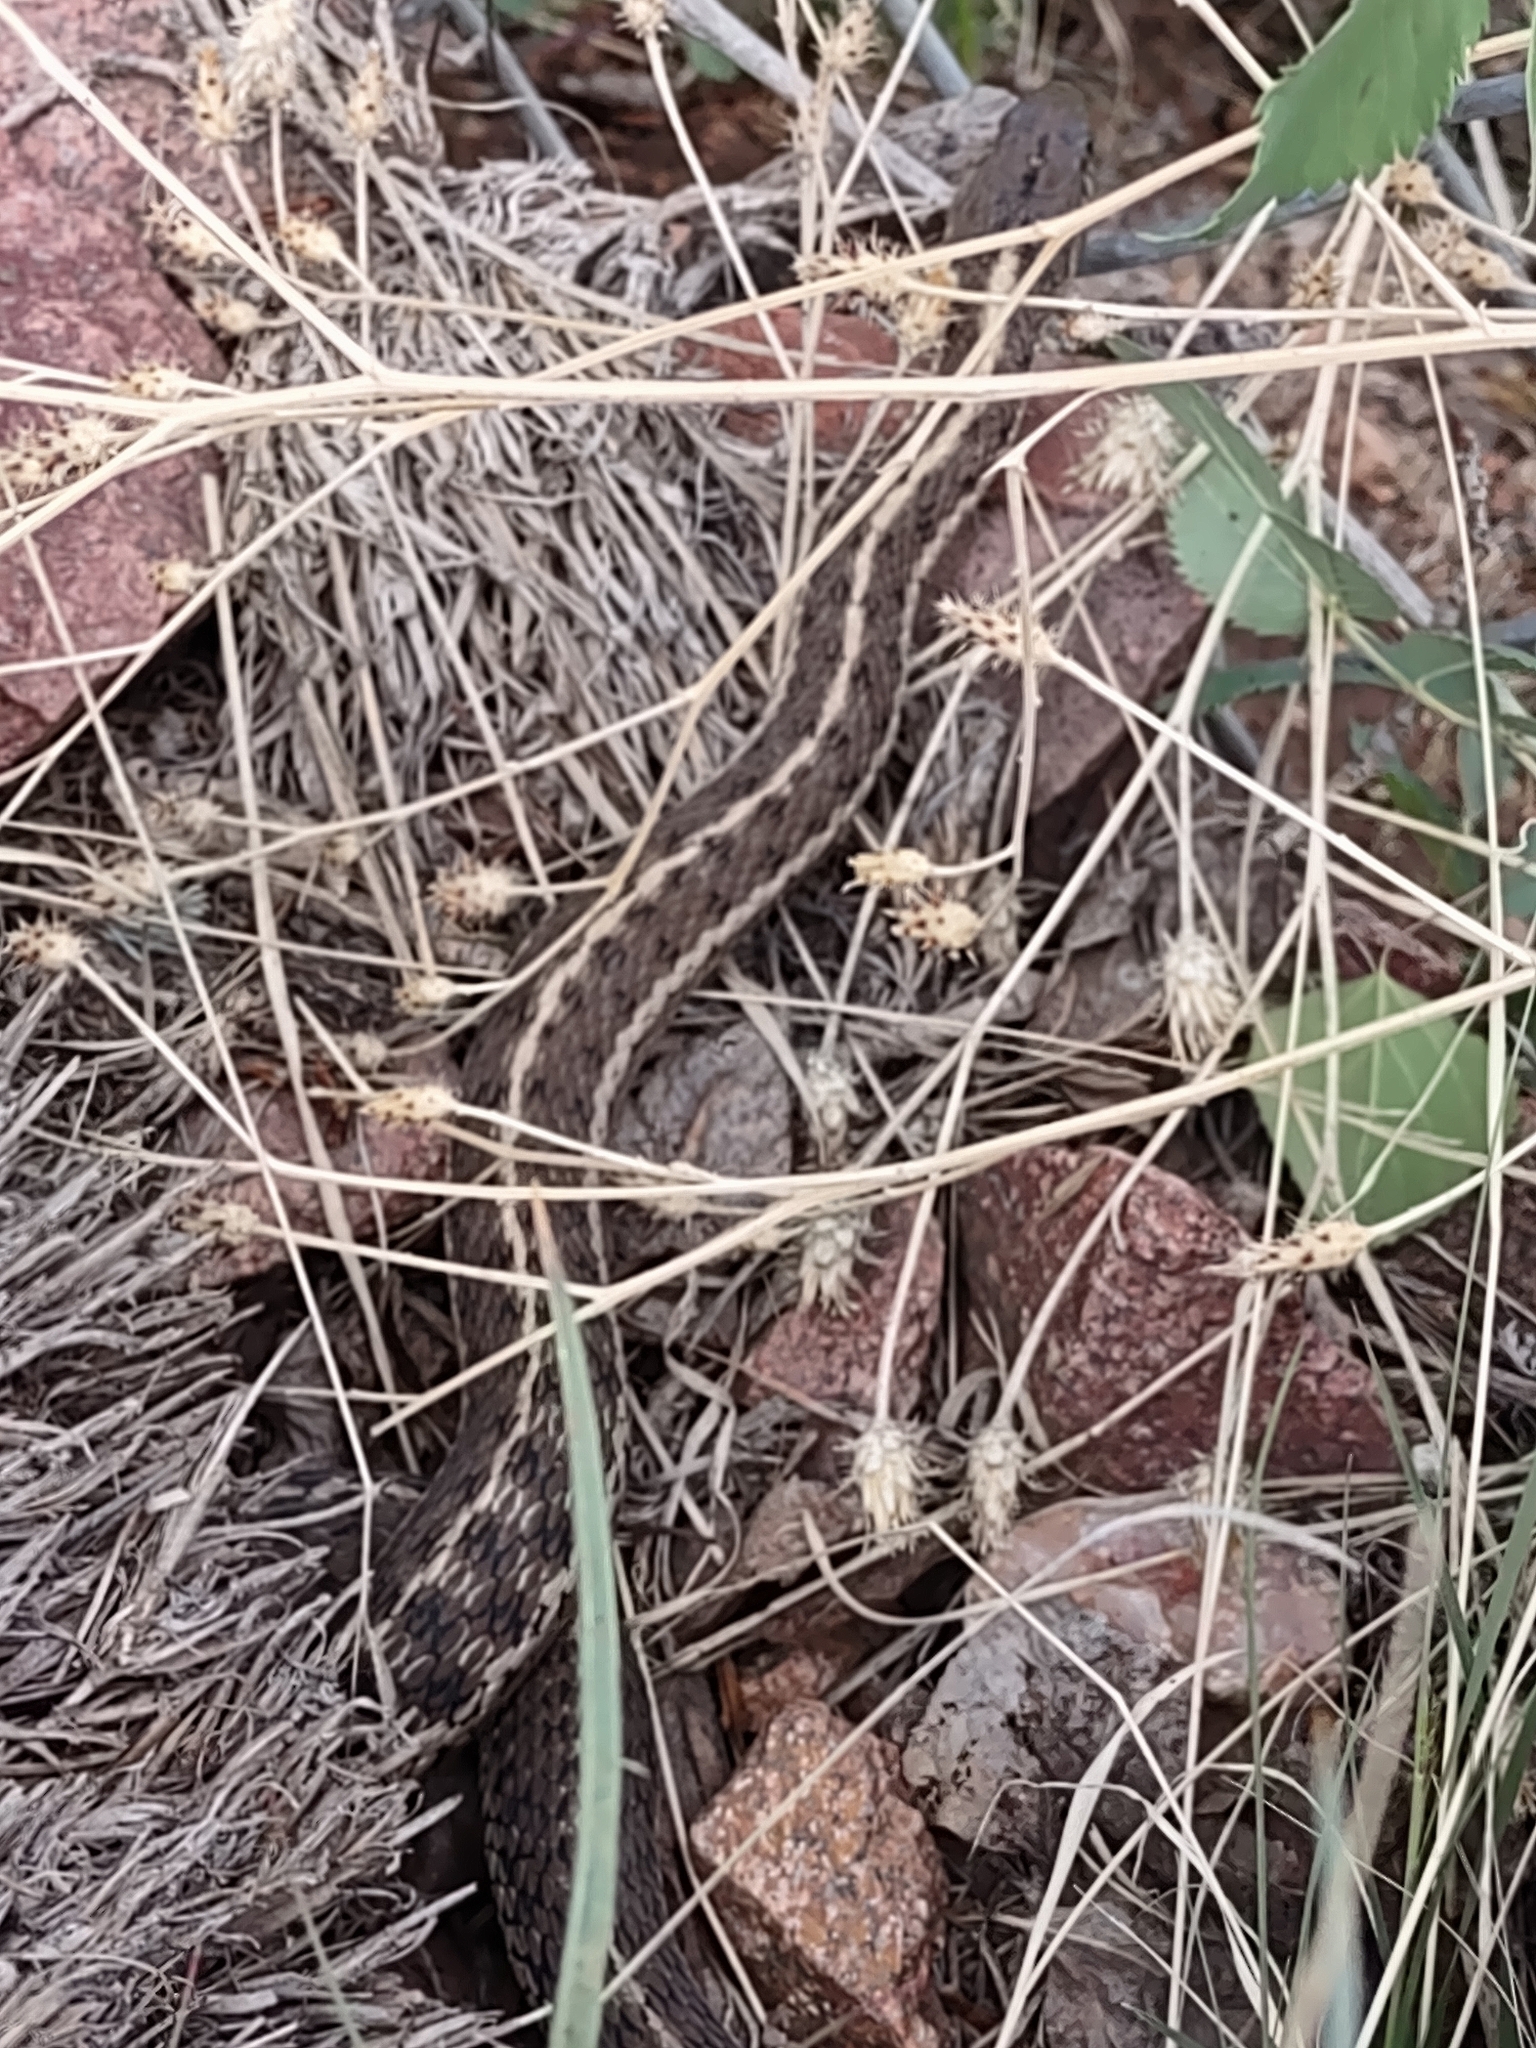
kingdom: Animalia
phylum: Chordata
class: Squamata
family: Colubridae
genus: Thamnophis
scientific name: Thamnophis elegans
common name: Western terrestrial garter snake
